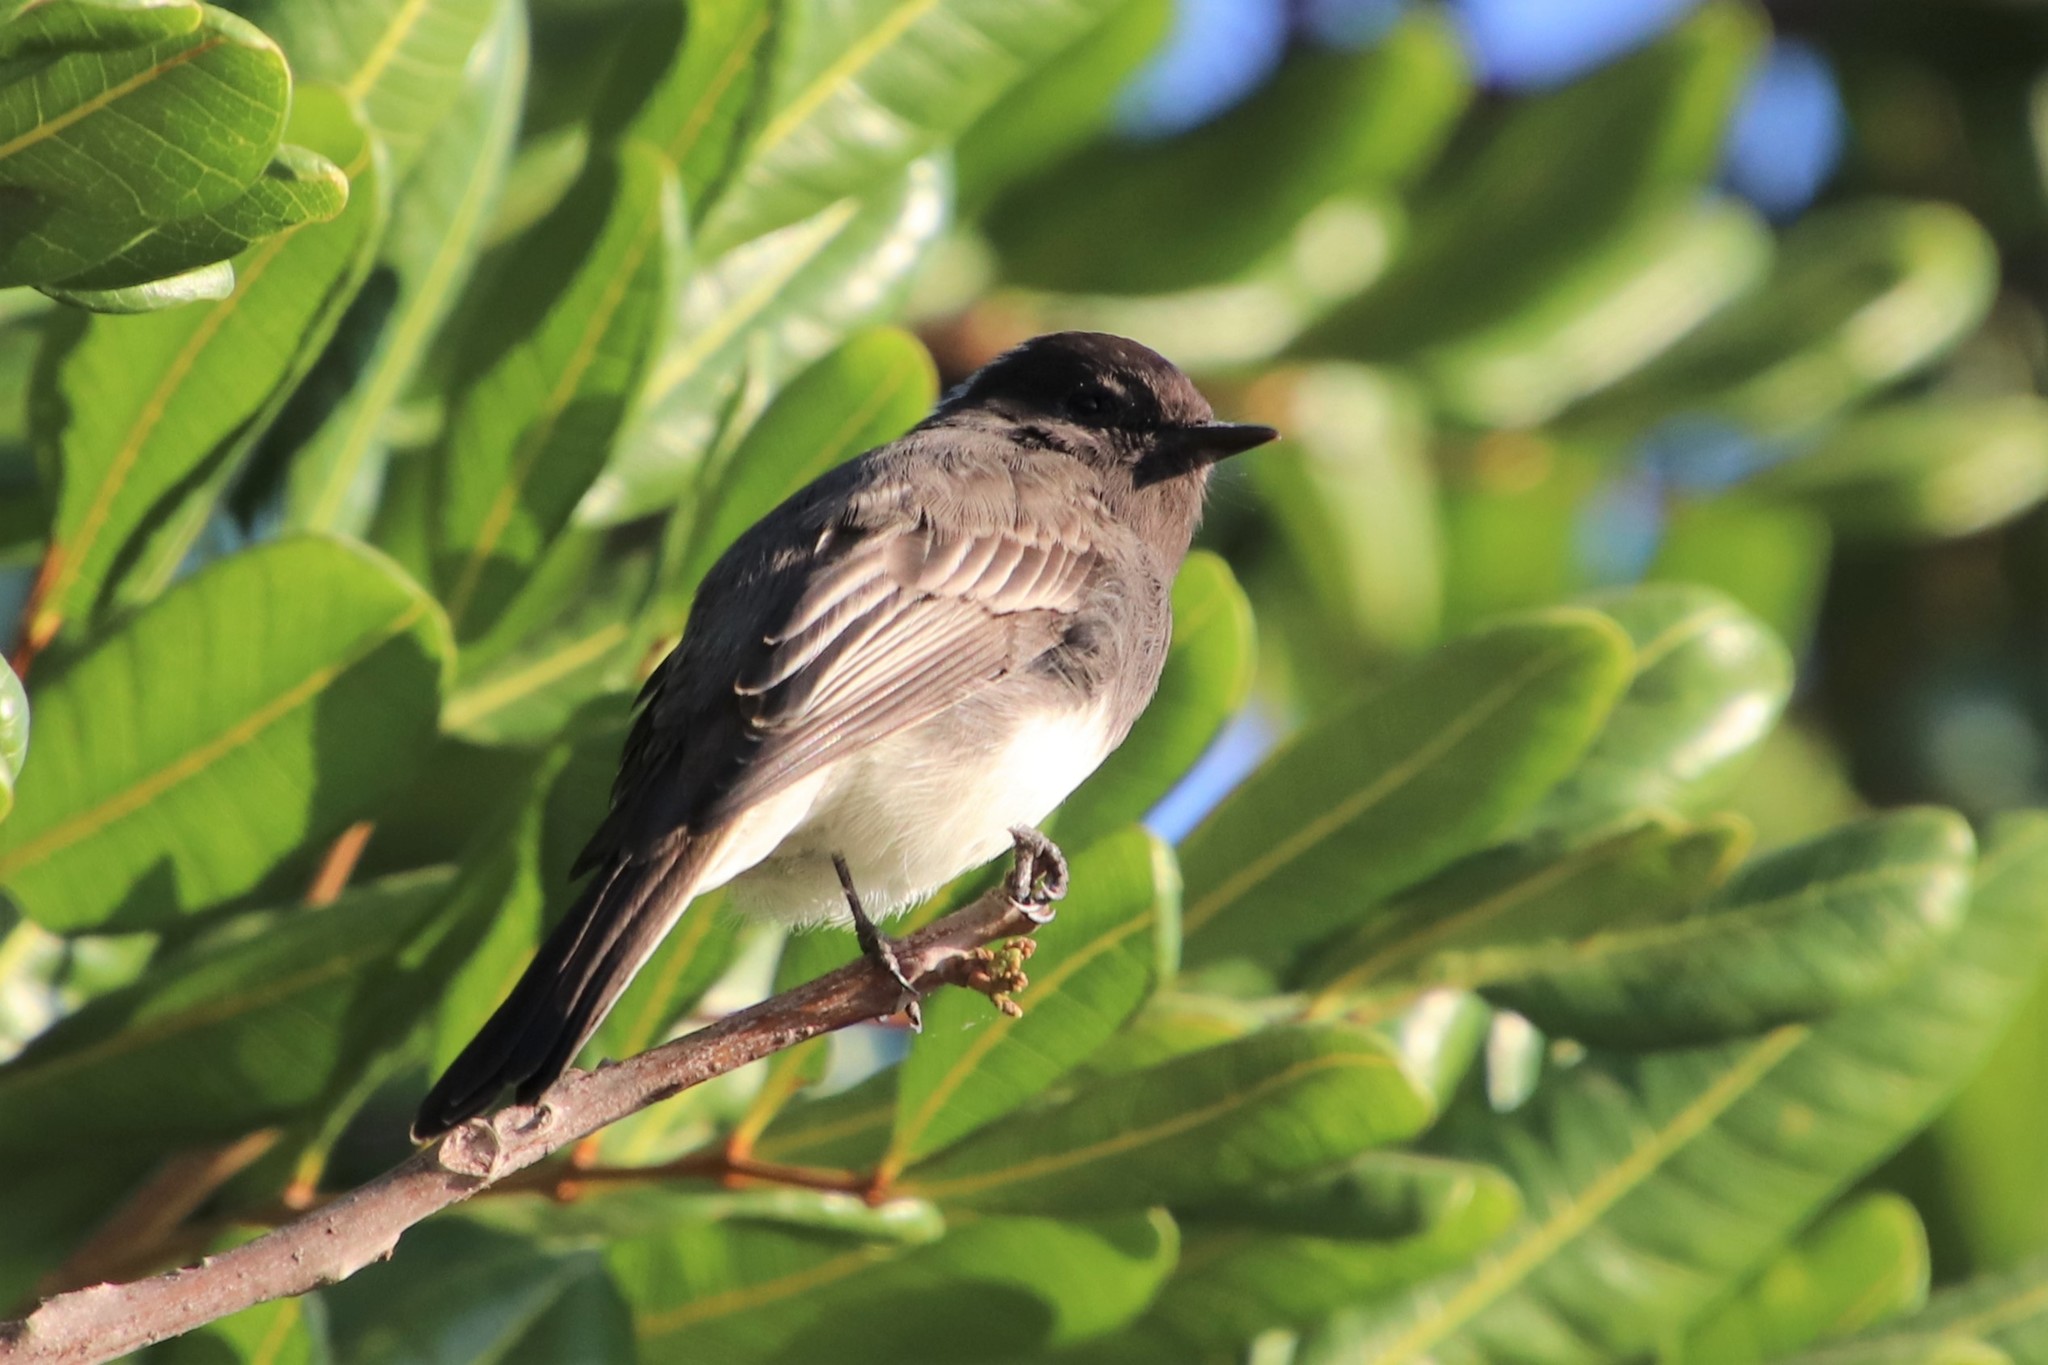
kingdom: Animalia
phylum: Chordata
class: Aves
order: Passeriformes
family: Tyrannidae
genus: Sayornis
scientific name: Sayornis nigricans
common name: Black phoebe
